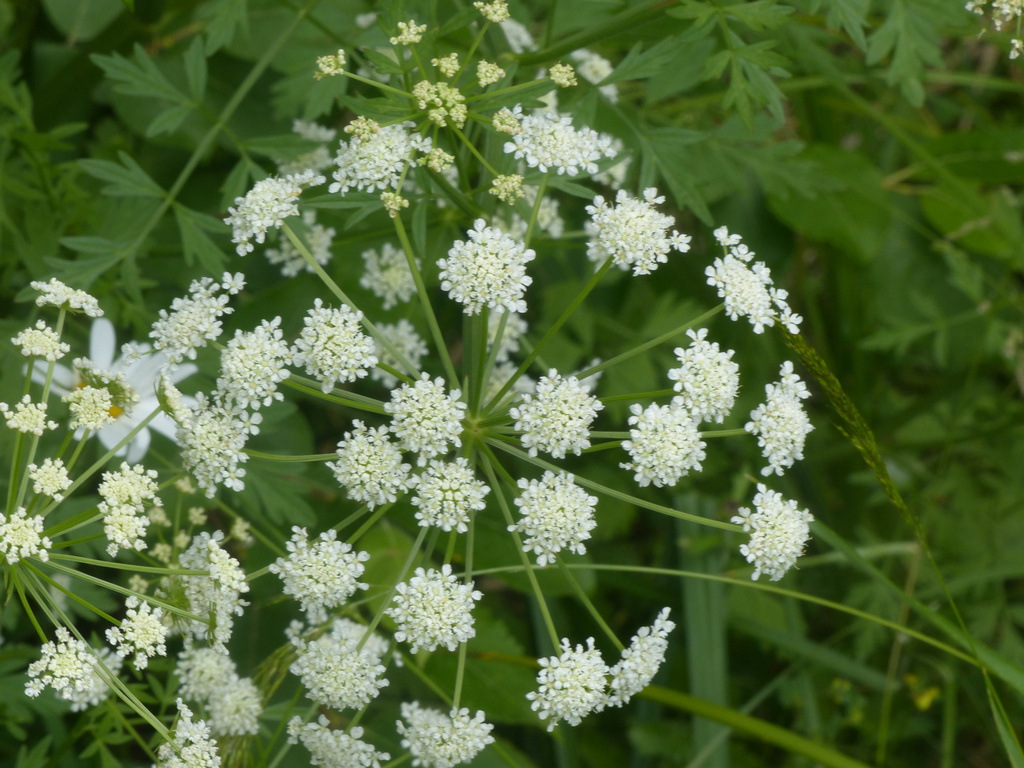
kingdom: Plantae
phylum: Tracheophyta
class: Magnoliopsida
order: Apiales
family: Apiaceae
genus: Oenanthe
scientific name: Oenanthe crocata
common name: Hemlock water-dropwort
